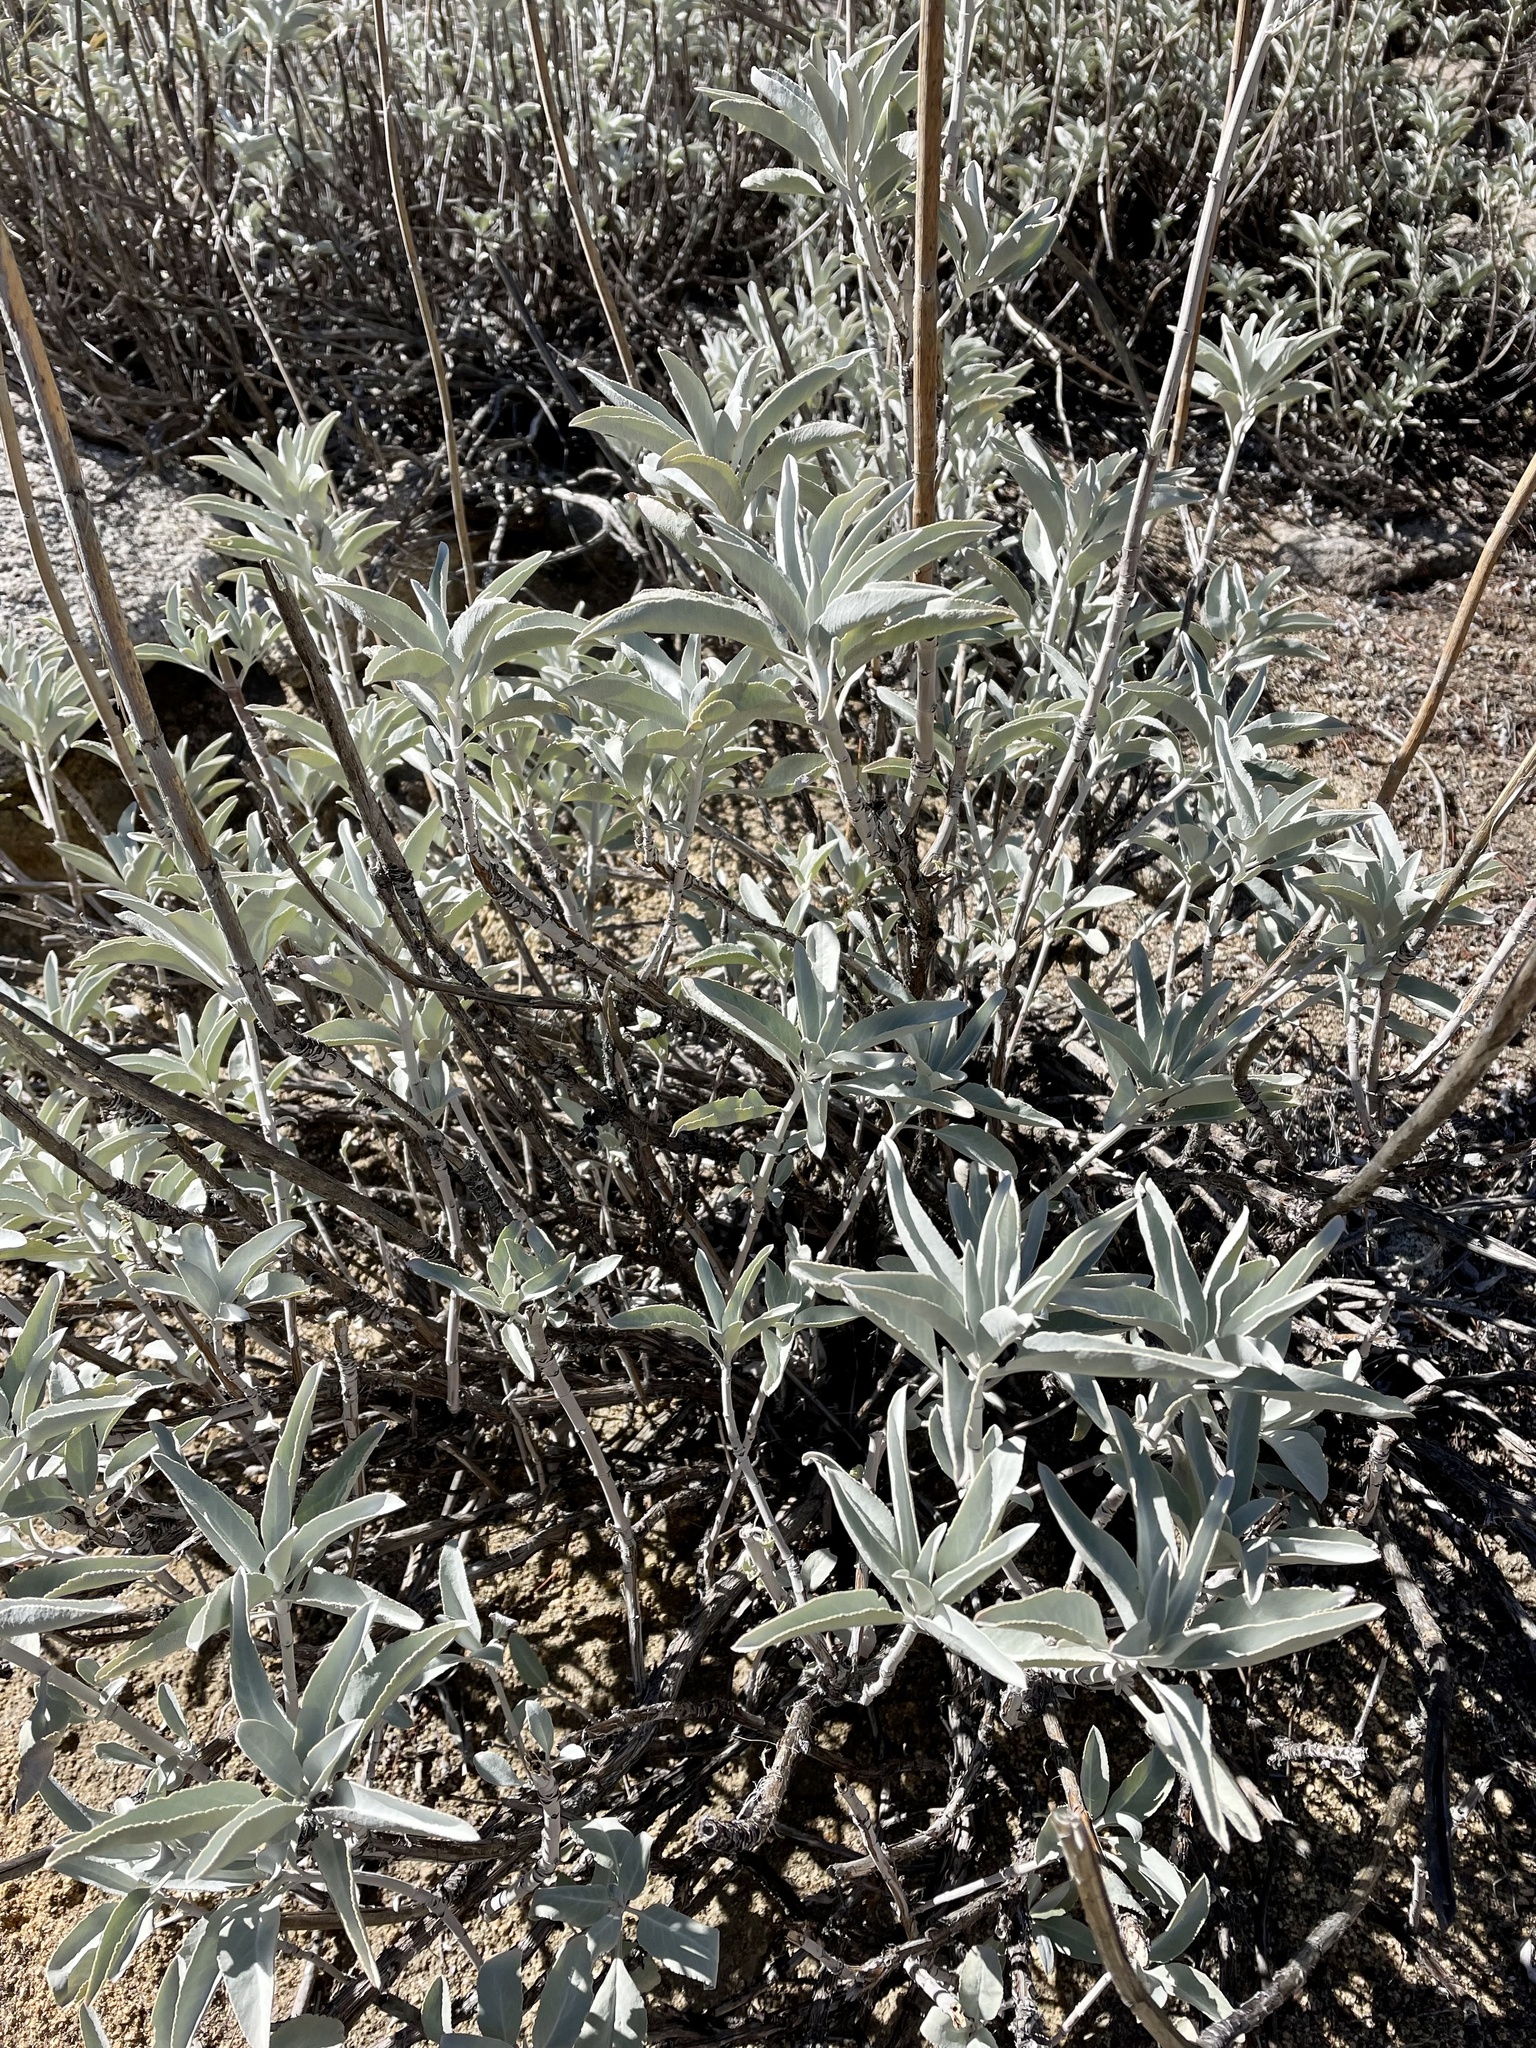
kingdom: Plantae
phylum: Tracheophyta
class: Magnoliopsida
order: Lamiales
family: Lamiaceae
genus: Salvia
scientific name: Salvia apiana
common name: White sage
